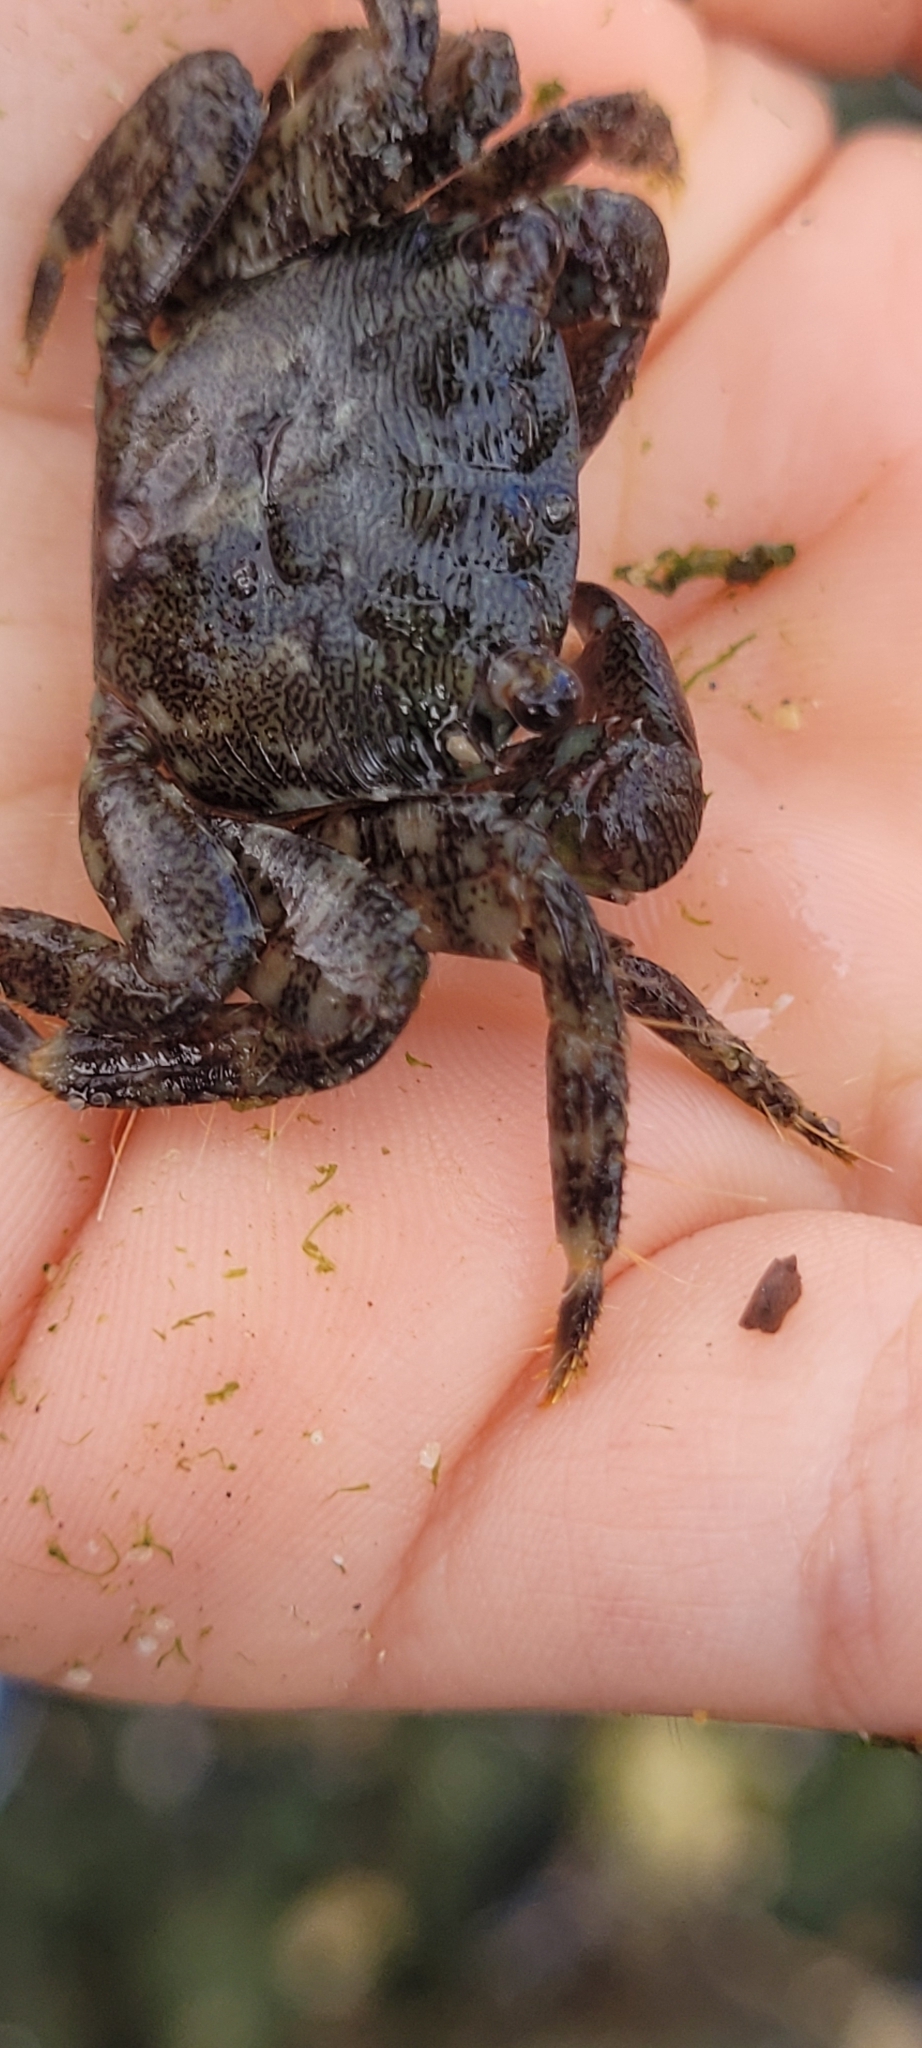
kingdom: Animalia
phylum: Arthropoda
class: Malacostraca
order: Decapoda
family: Grapsidae
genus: Pachygrapsus
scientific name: Pachygrapsus marmoratus
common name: Marbled rock crab
